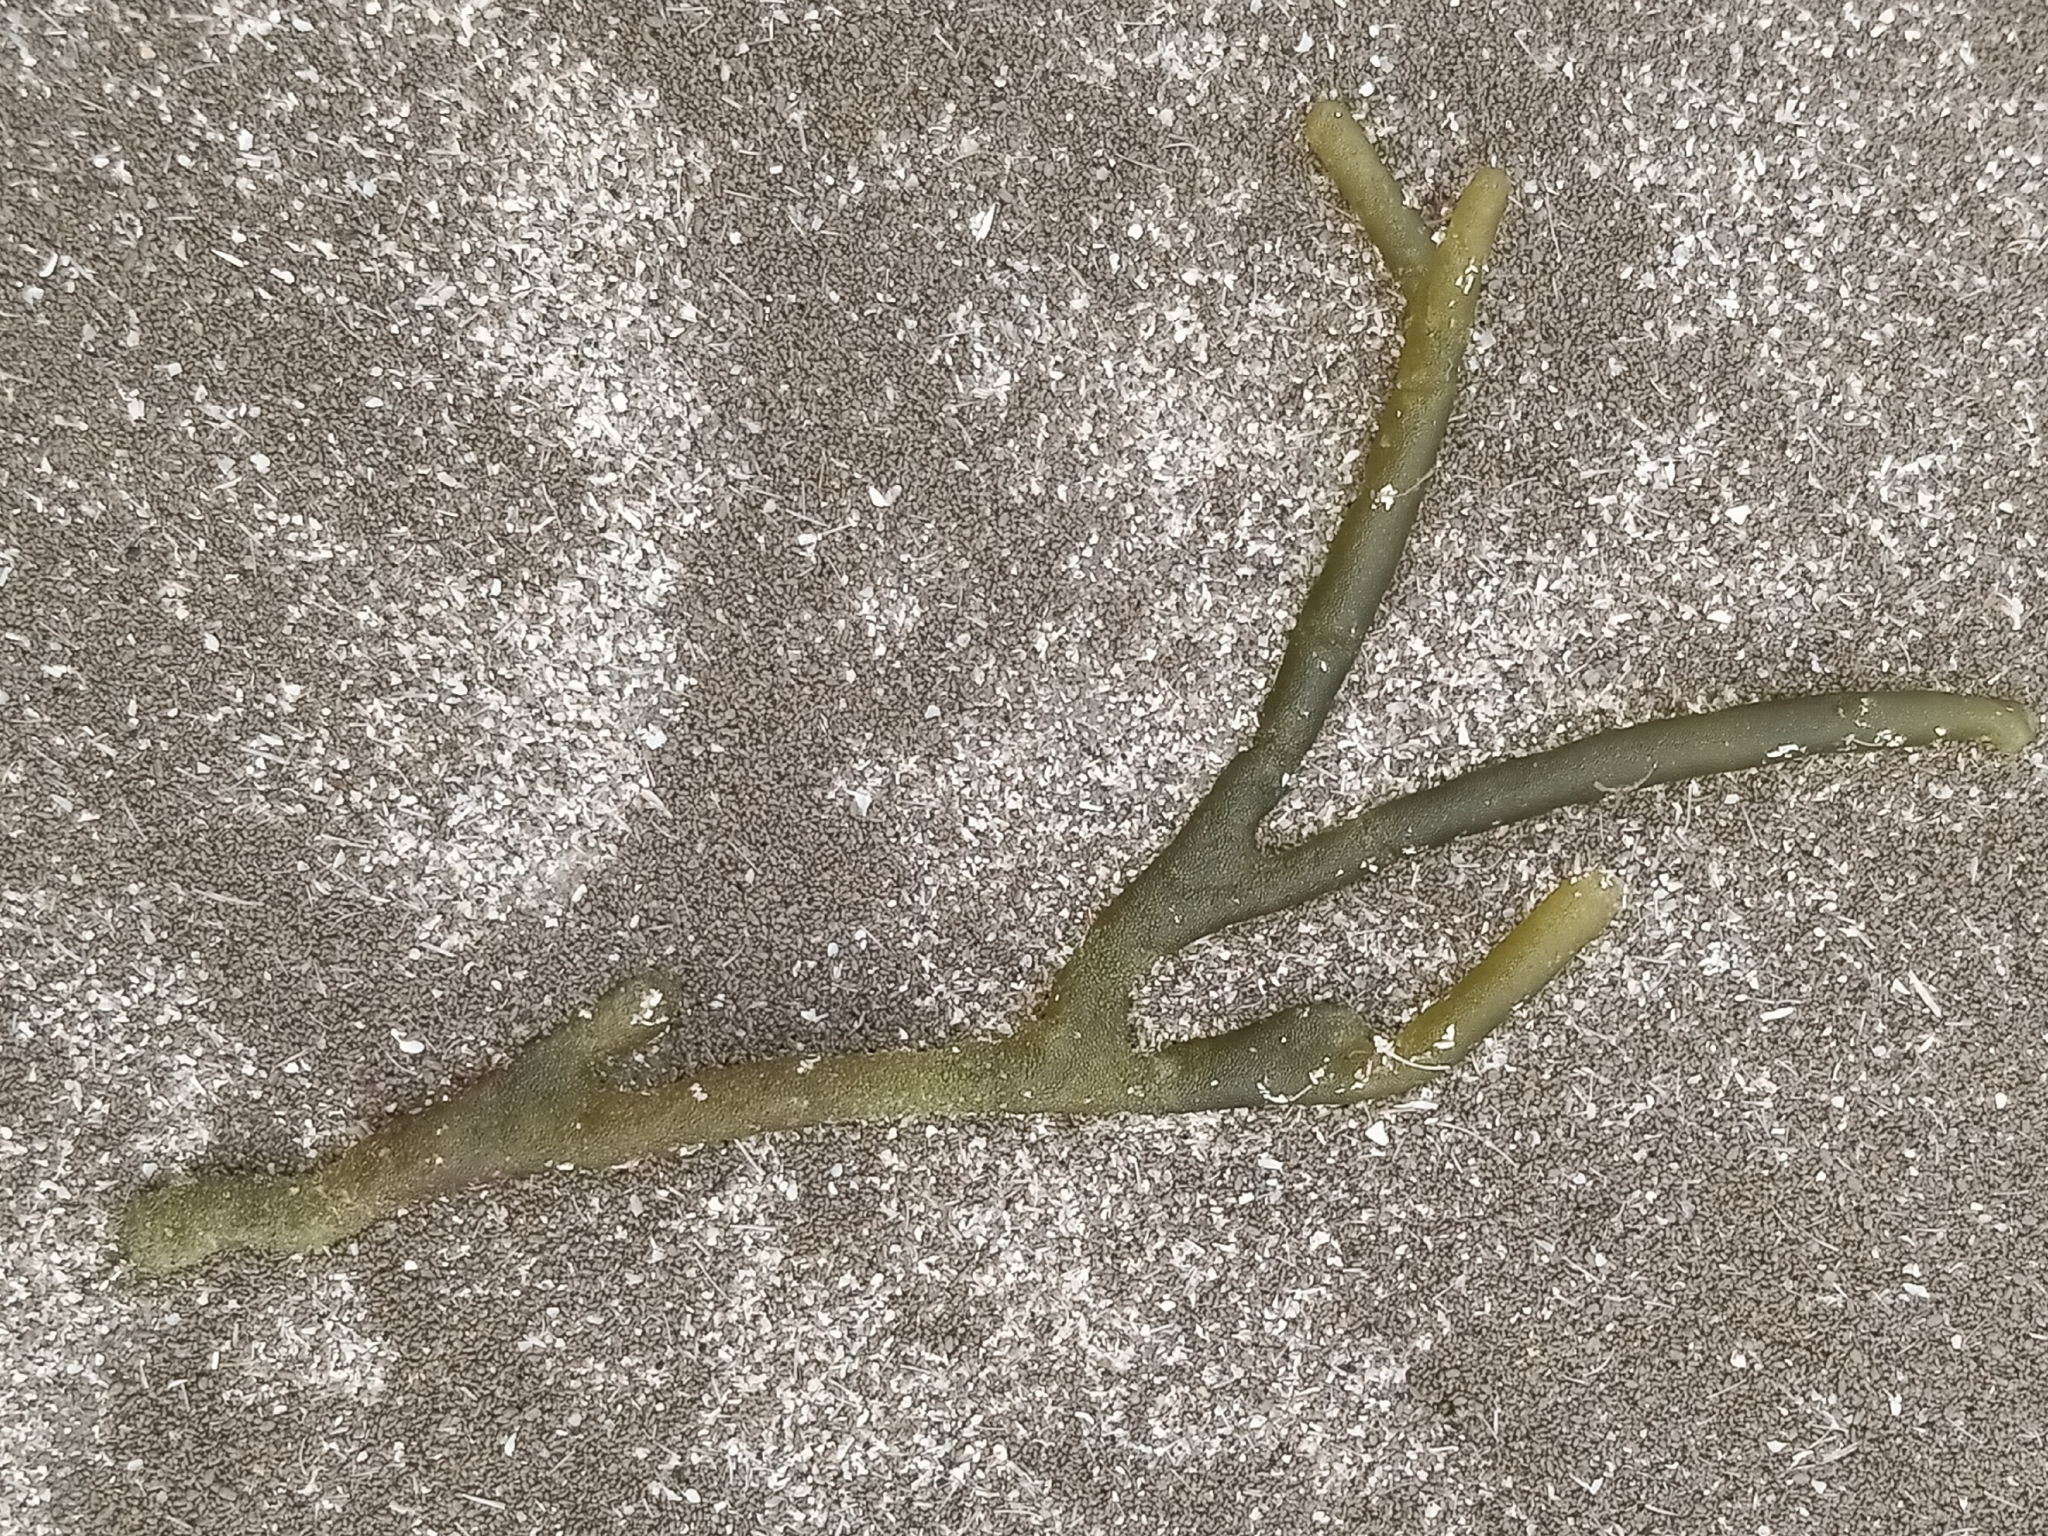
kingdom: Plantae
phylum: Chlorophyta
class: Ulvophyceae
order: Bryopsidales
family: Codiaceae
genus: Codium
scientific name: Codium fragile
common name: Dead man's fingers
